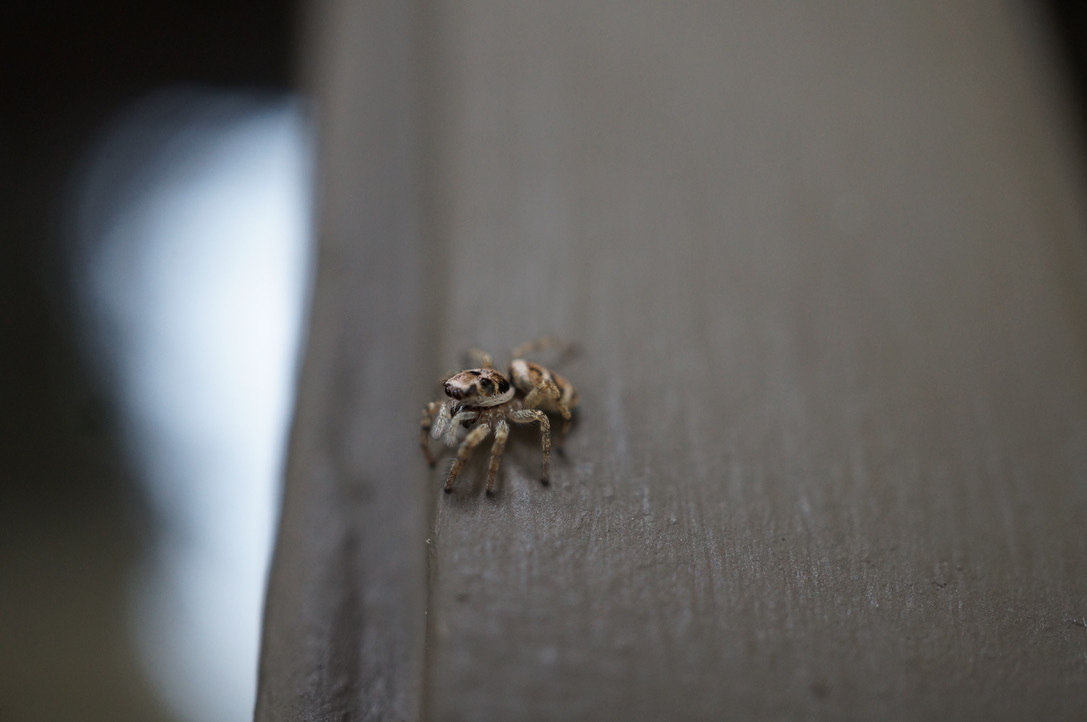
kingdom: Animalia
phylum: Arthropoda
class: Arachnida
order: Araneae
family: Salticidae
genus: Salticus
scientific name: Salticus scenicus
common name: Zebra jumper
